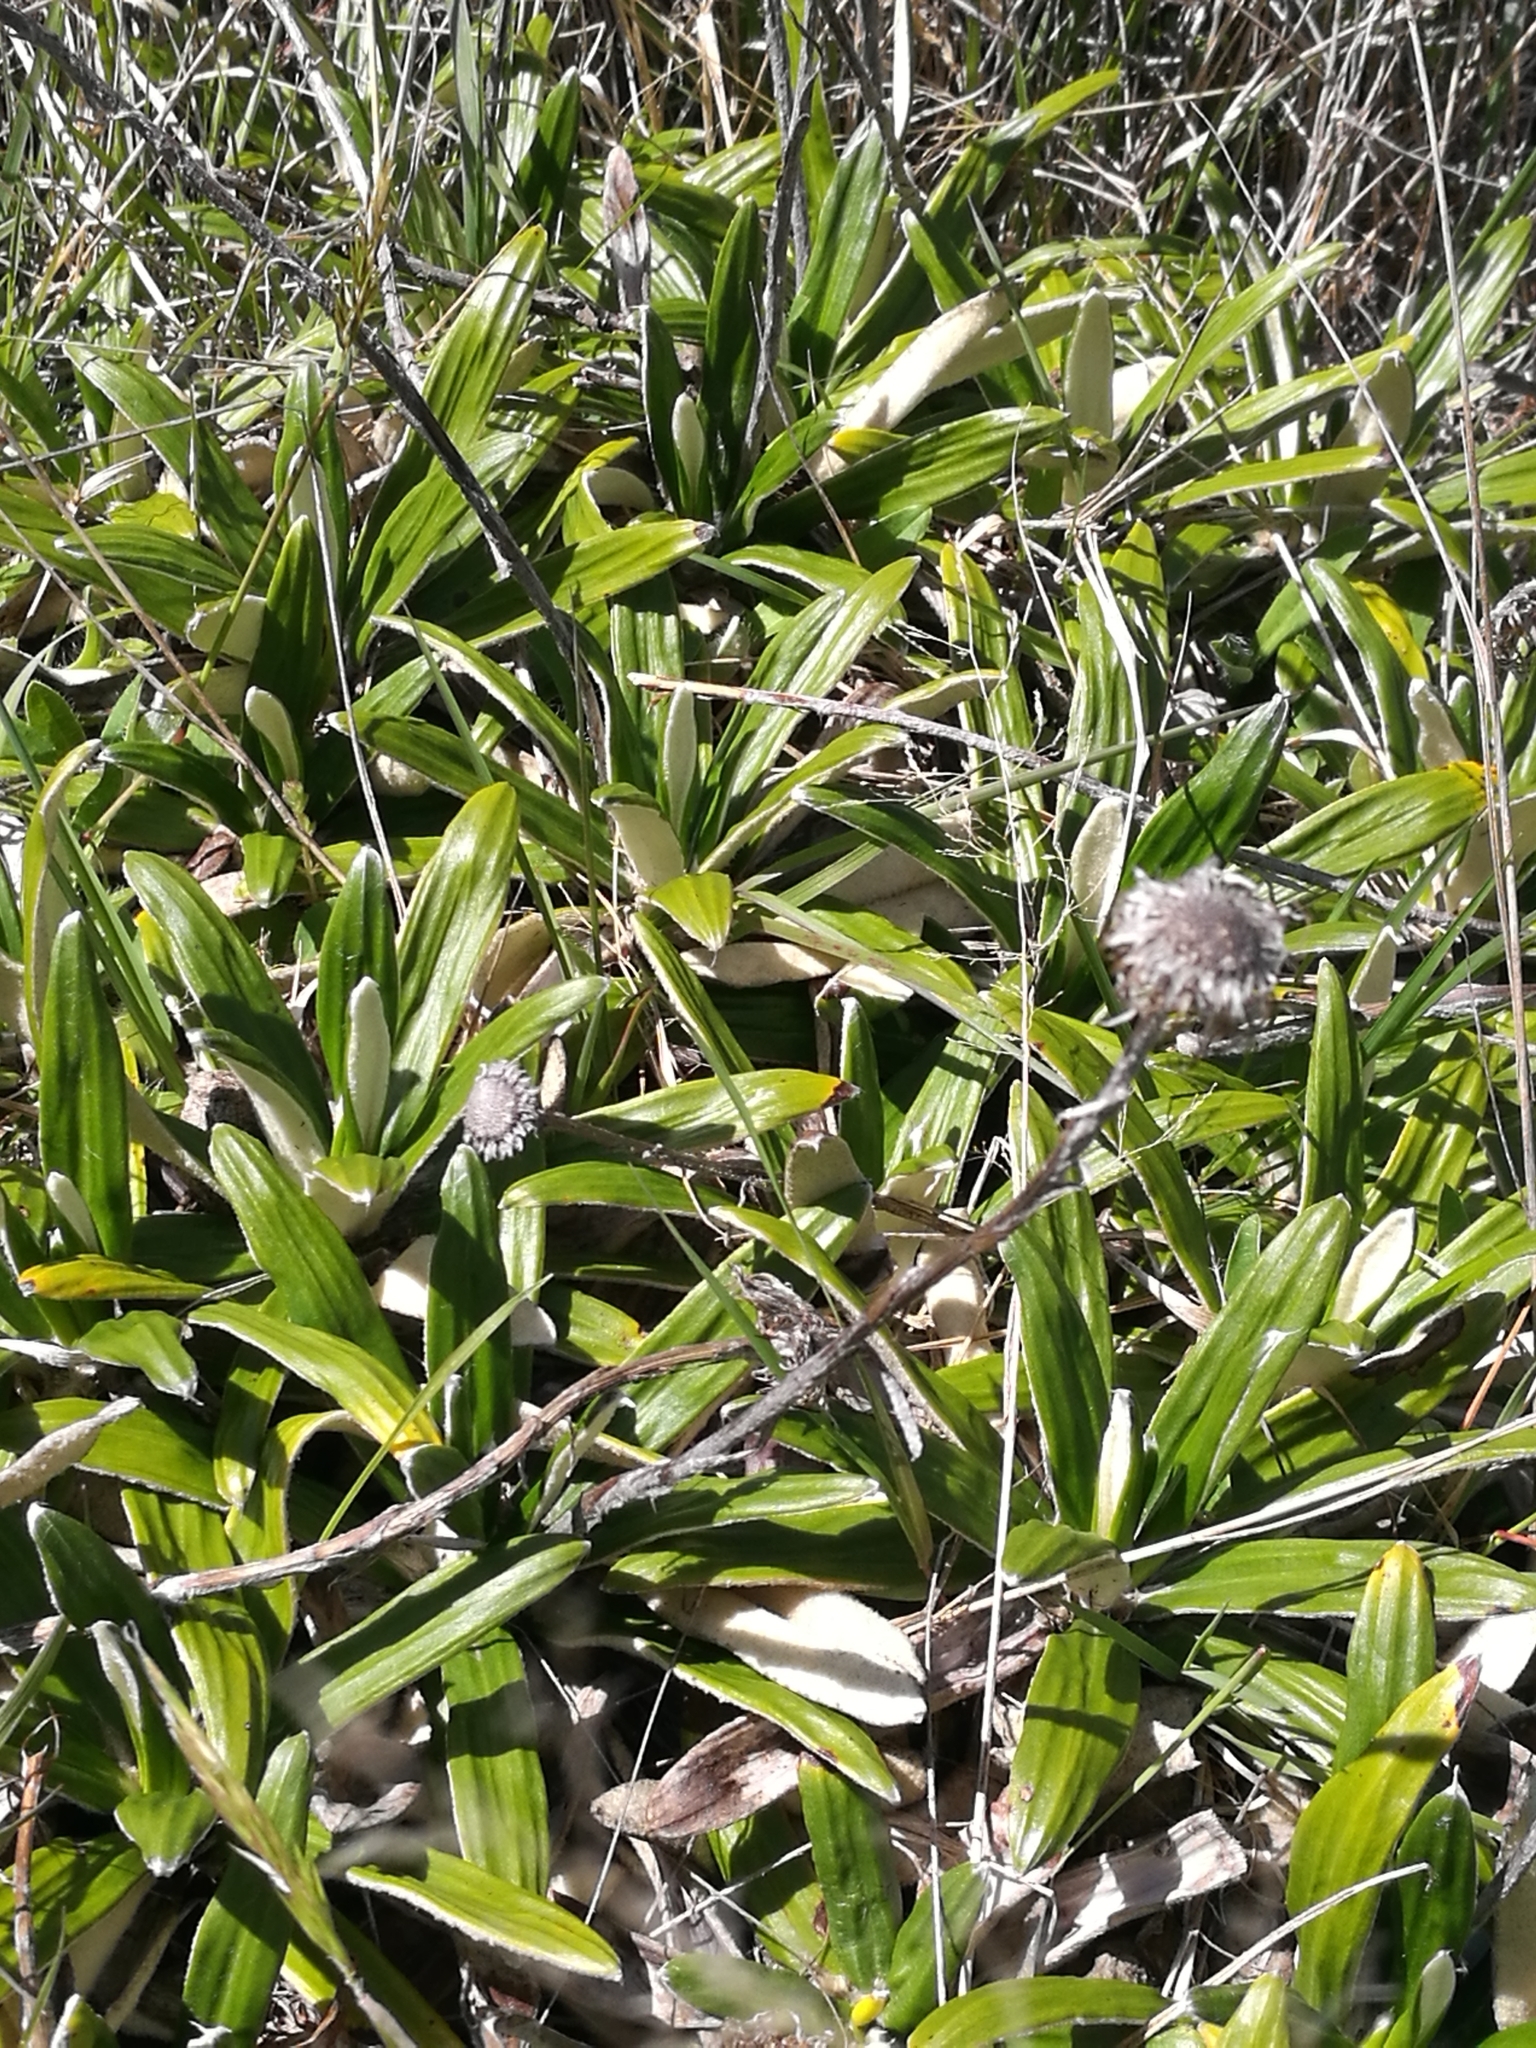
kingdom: Plantae
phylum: Tracheophyta
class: Magnoliopsida
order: Asterales
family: Asteraceae
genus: Celmisia
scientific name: Celmisia spectabilis
